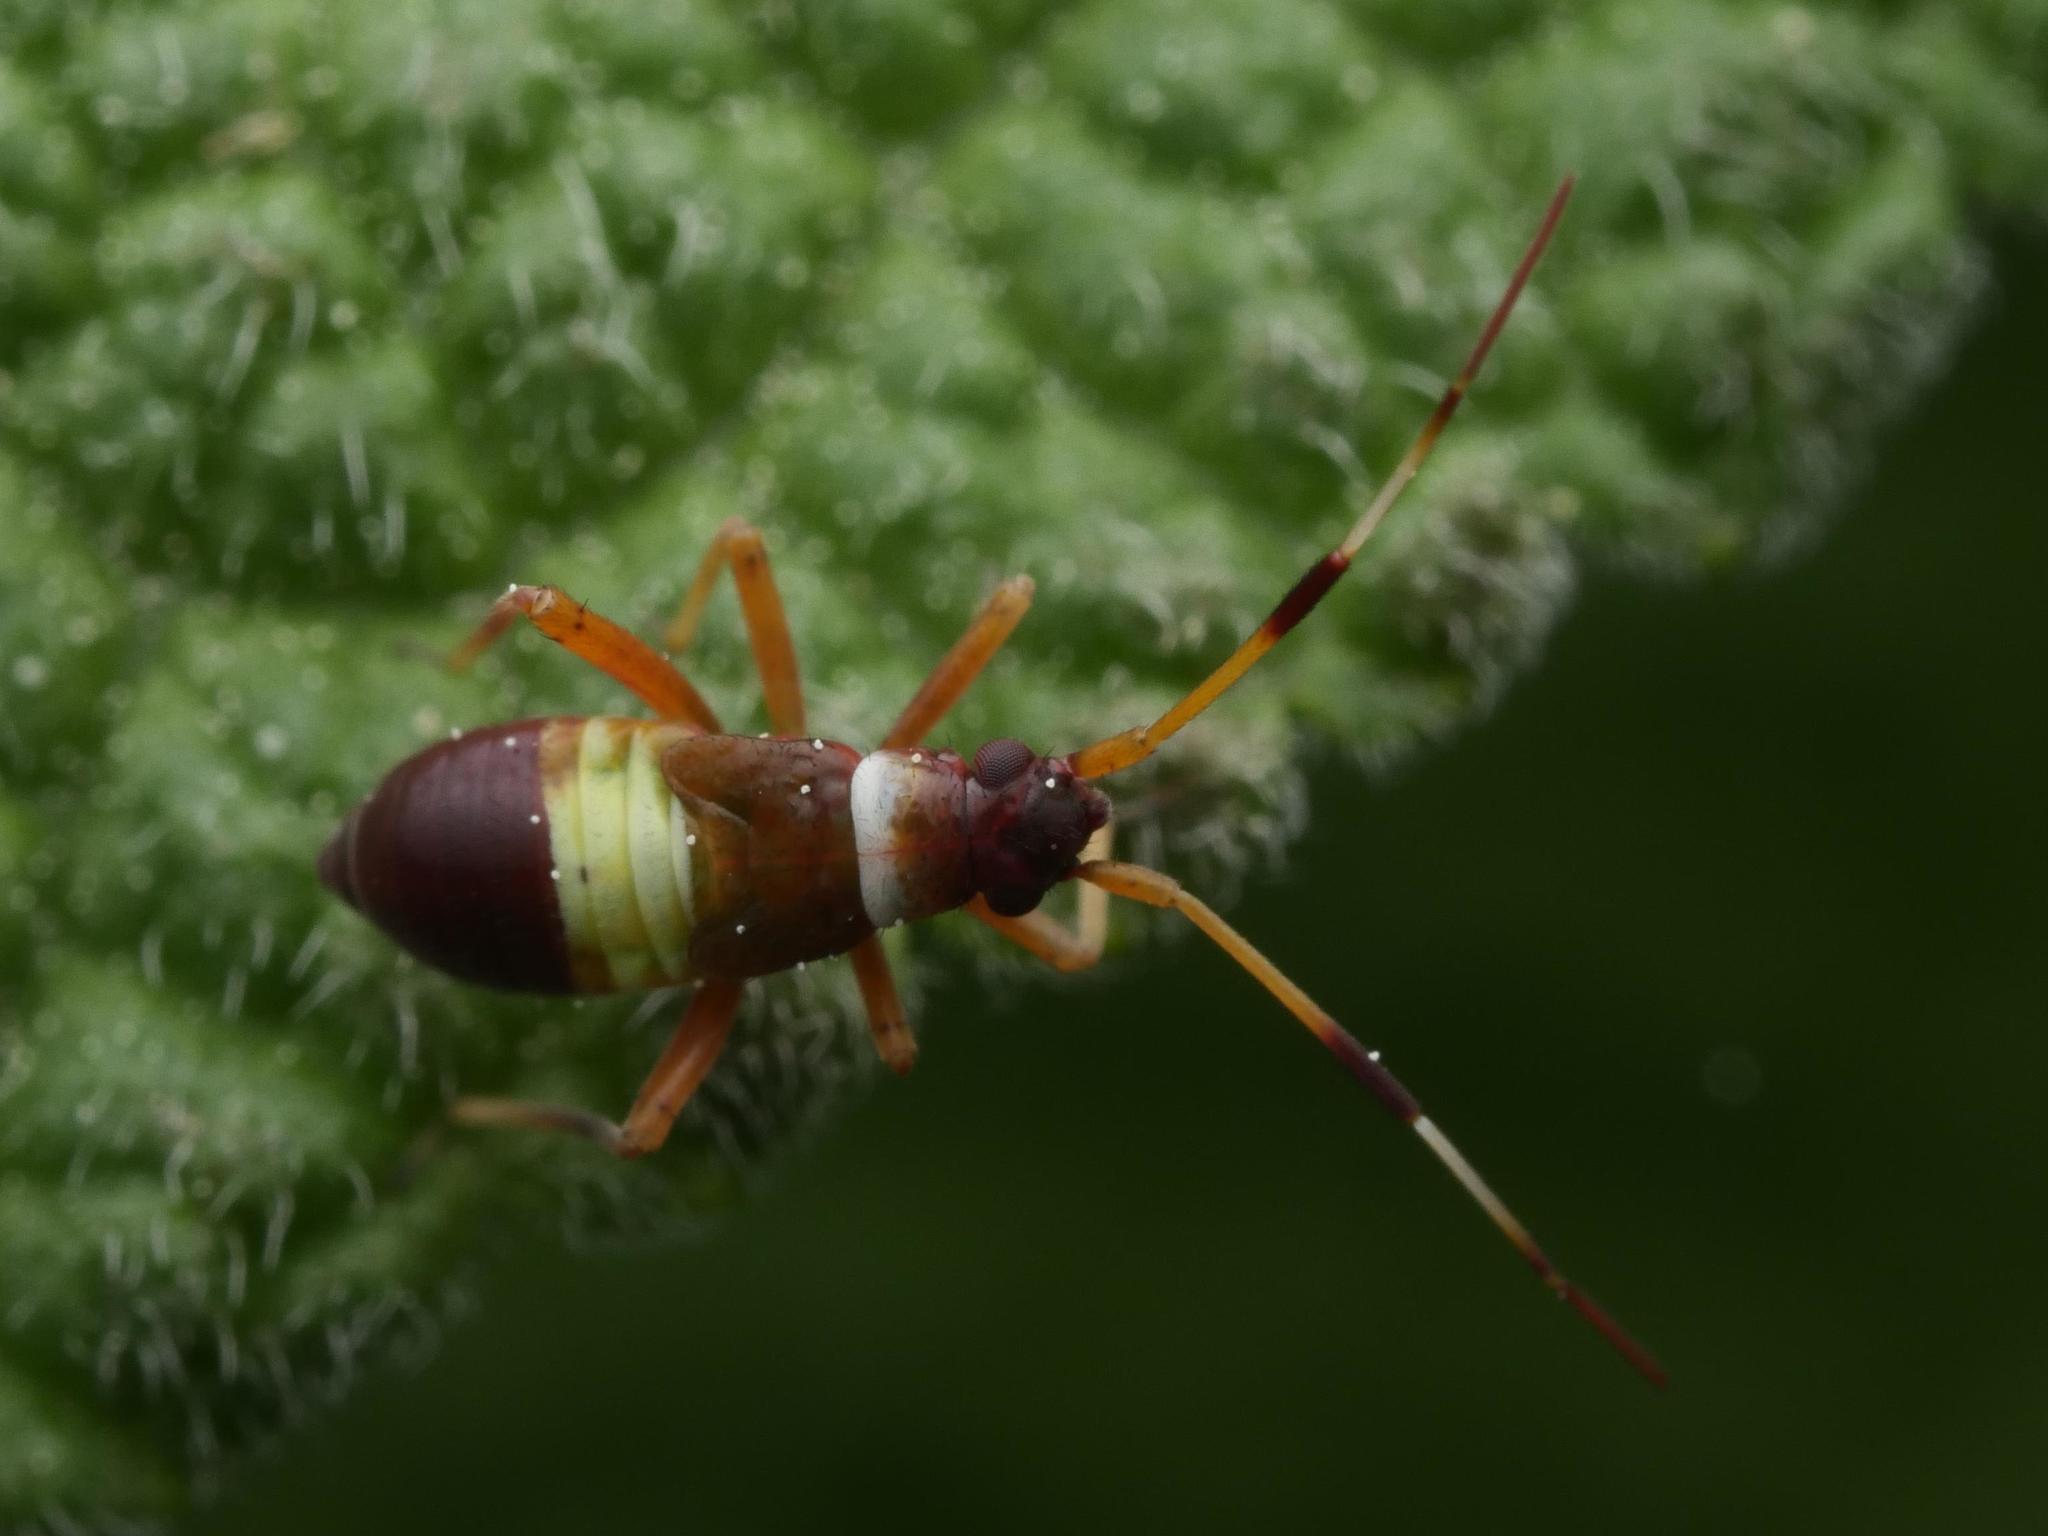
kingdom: Animalia
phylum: Arthropoda
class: Insecta
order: Hemiptera
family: Miridae
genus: Closterotomus
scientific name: Closterotomus biclavatus
